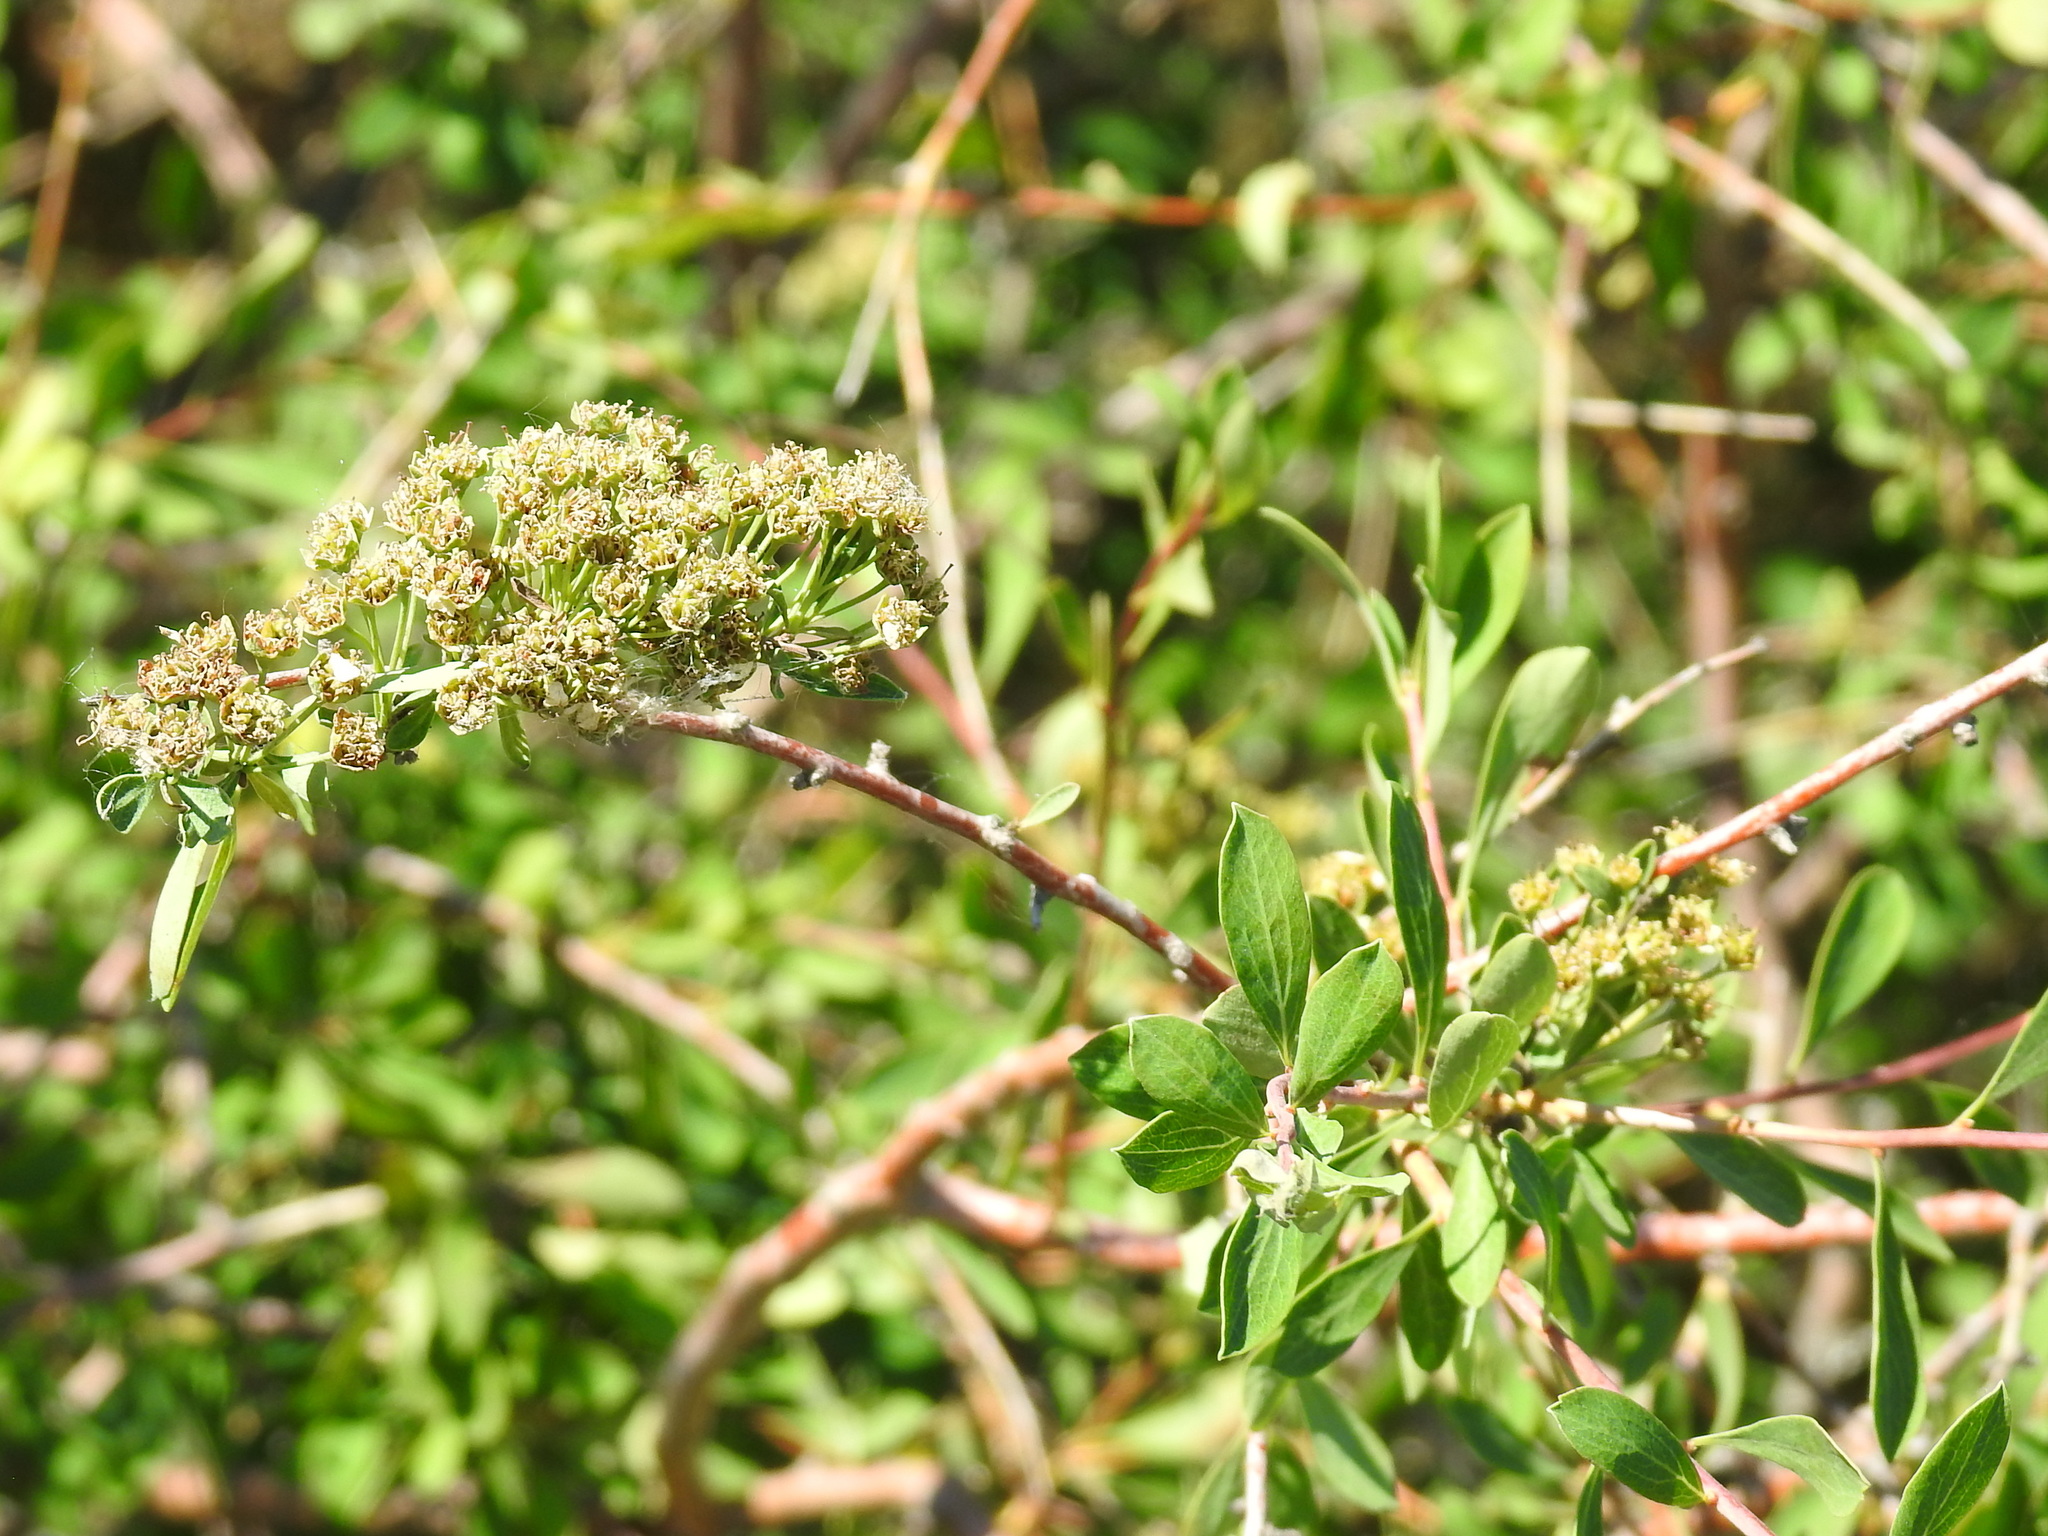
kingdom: Plantae
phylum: Tracheophyta
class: Magnoliopsida
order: Rosales
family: Rosaceae
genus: Spiraea
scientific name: Spiraea hypericifolia
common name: Iberian spirea
